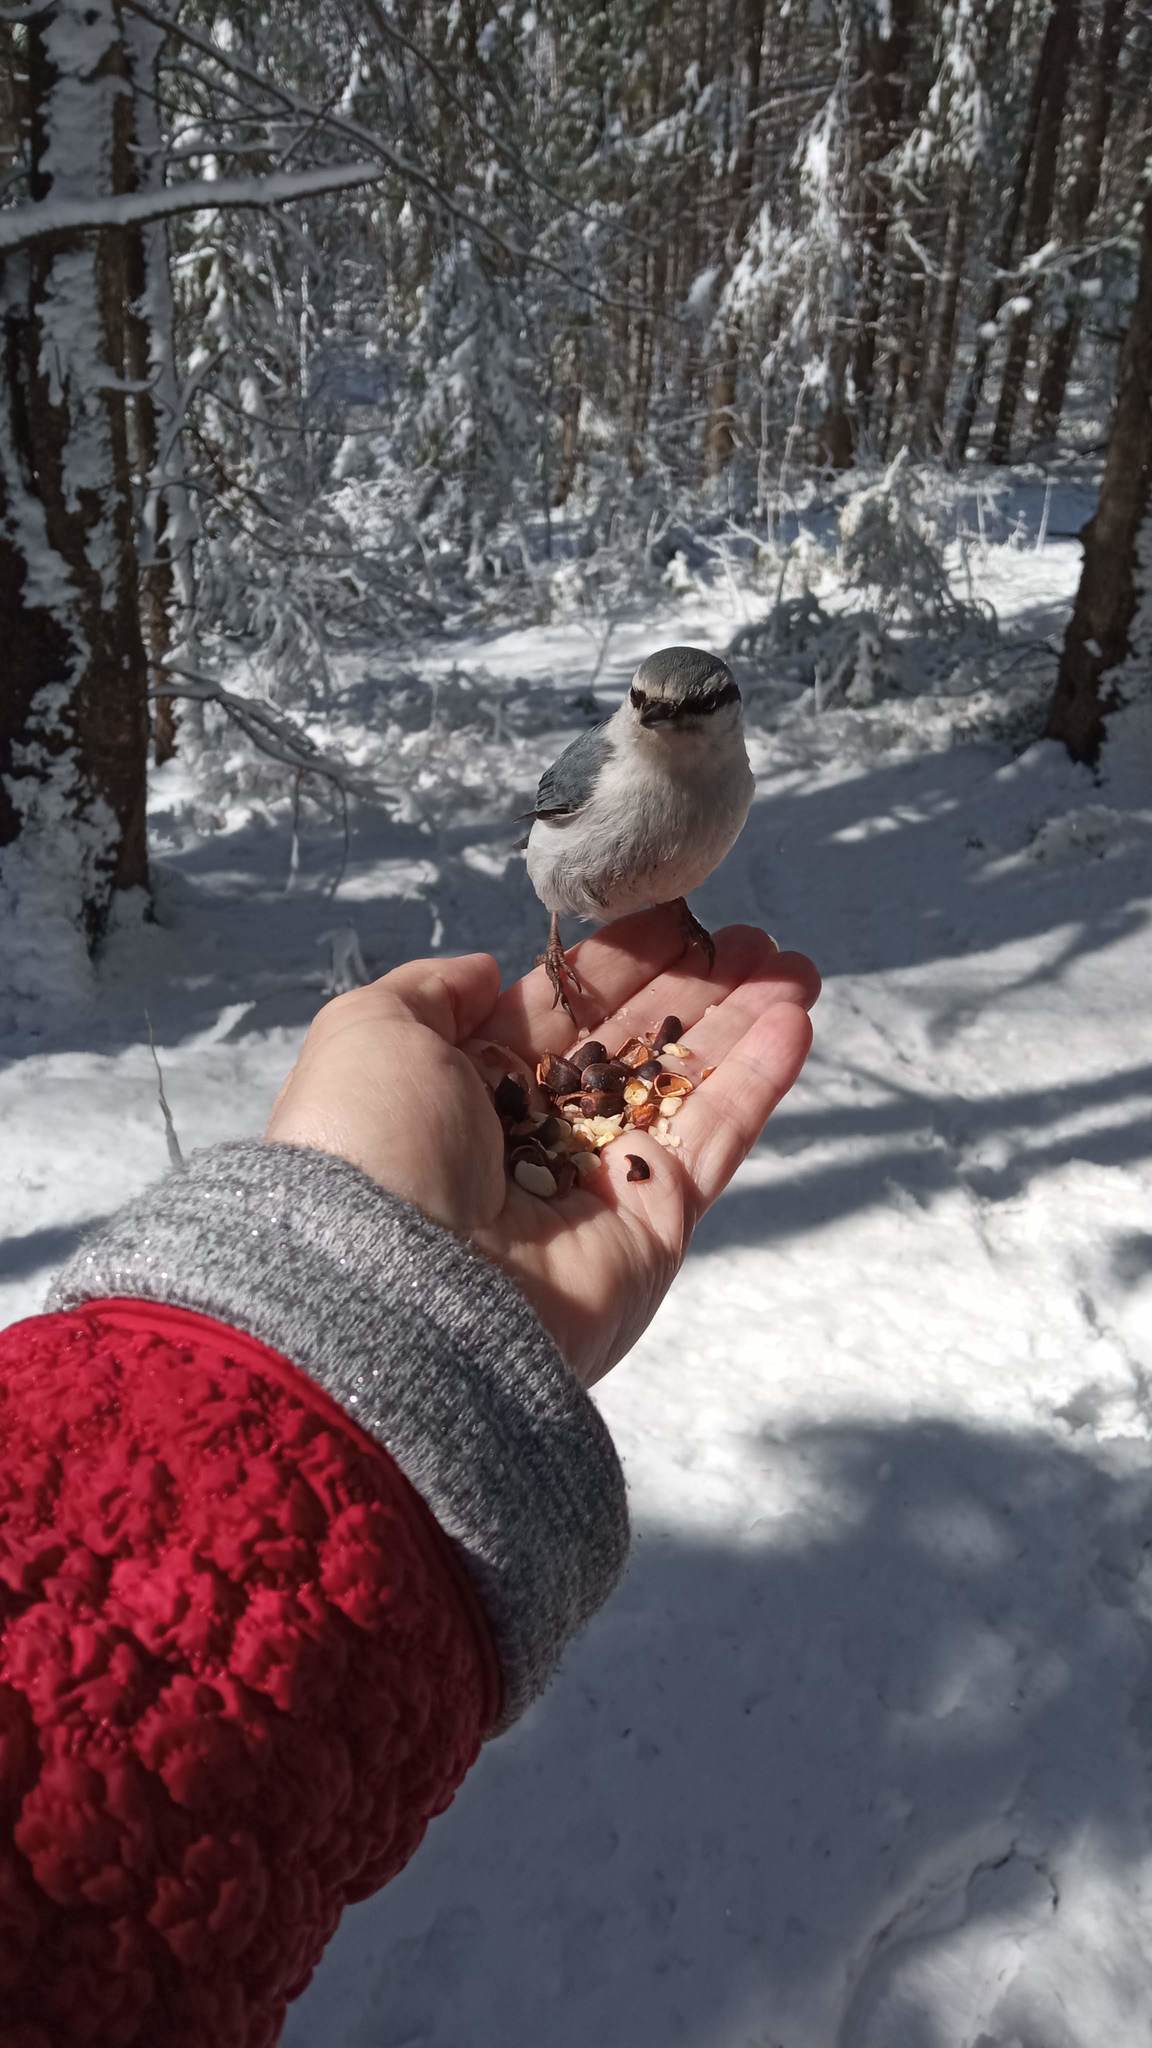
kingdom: Animalia
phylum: Chordata
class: Aves
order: Passeriformes
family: Sittidae
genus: Sitta
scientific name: Sitta europaea
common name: Eurasian nuthatch
